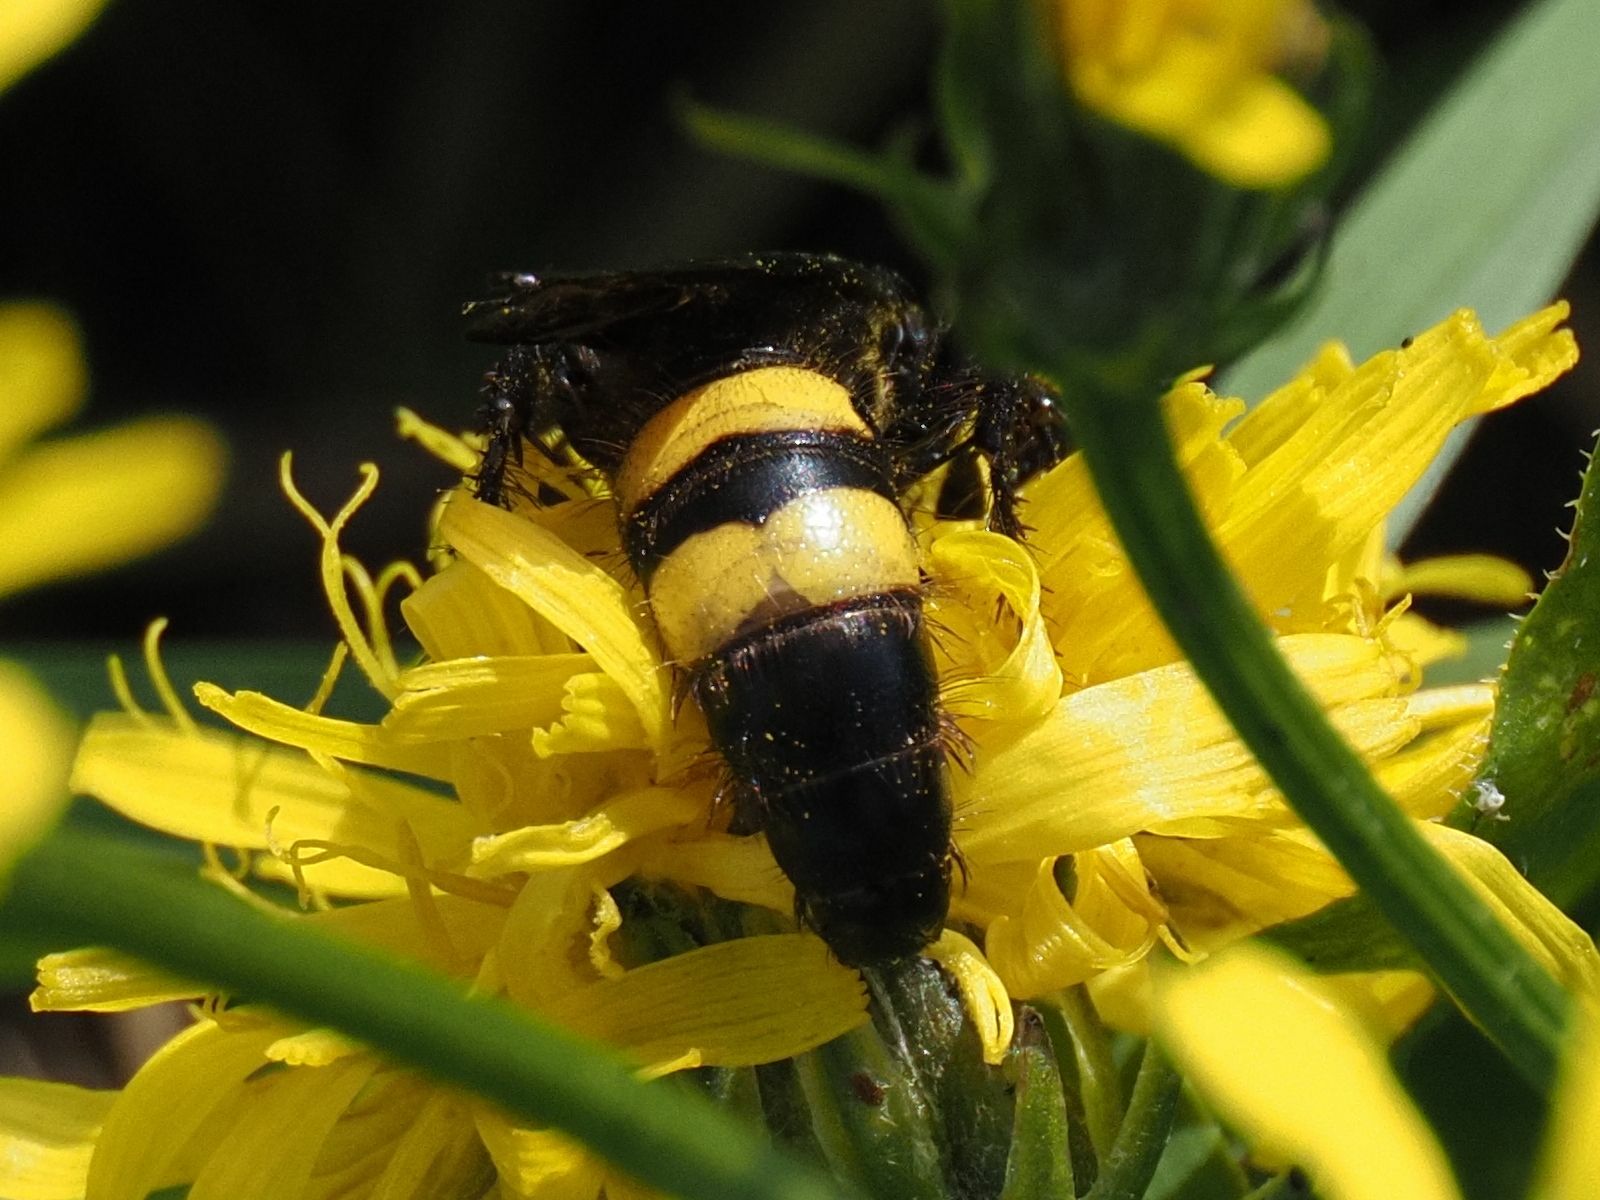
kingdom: Animalia
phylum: Arthropoda
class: Insecta
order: Hymenoptera
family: Scoliidae
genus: Scolia
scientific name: Scolia hirta
